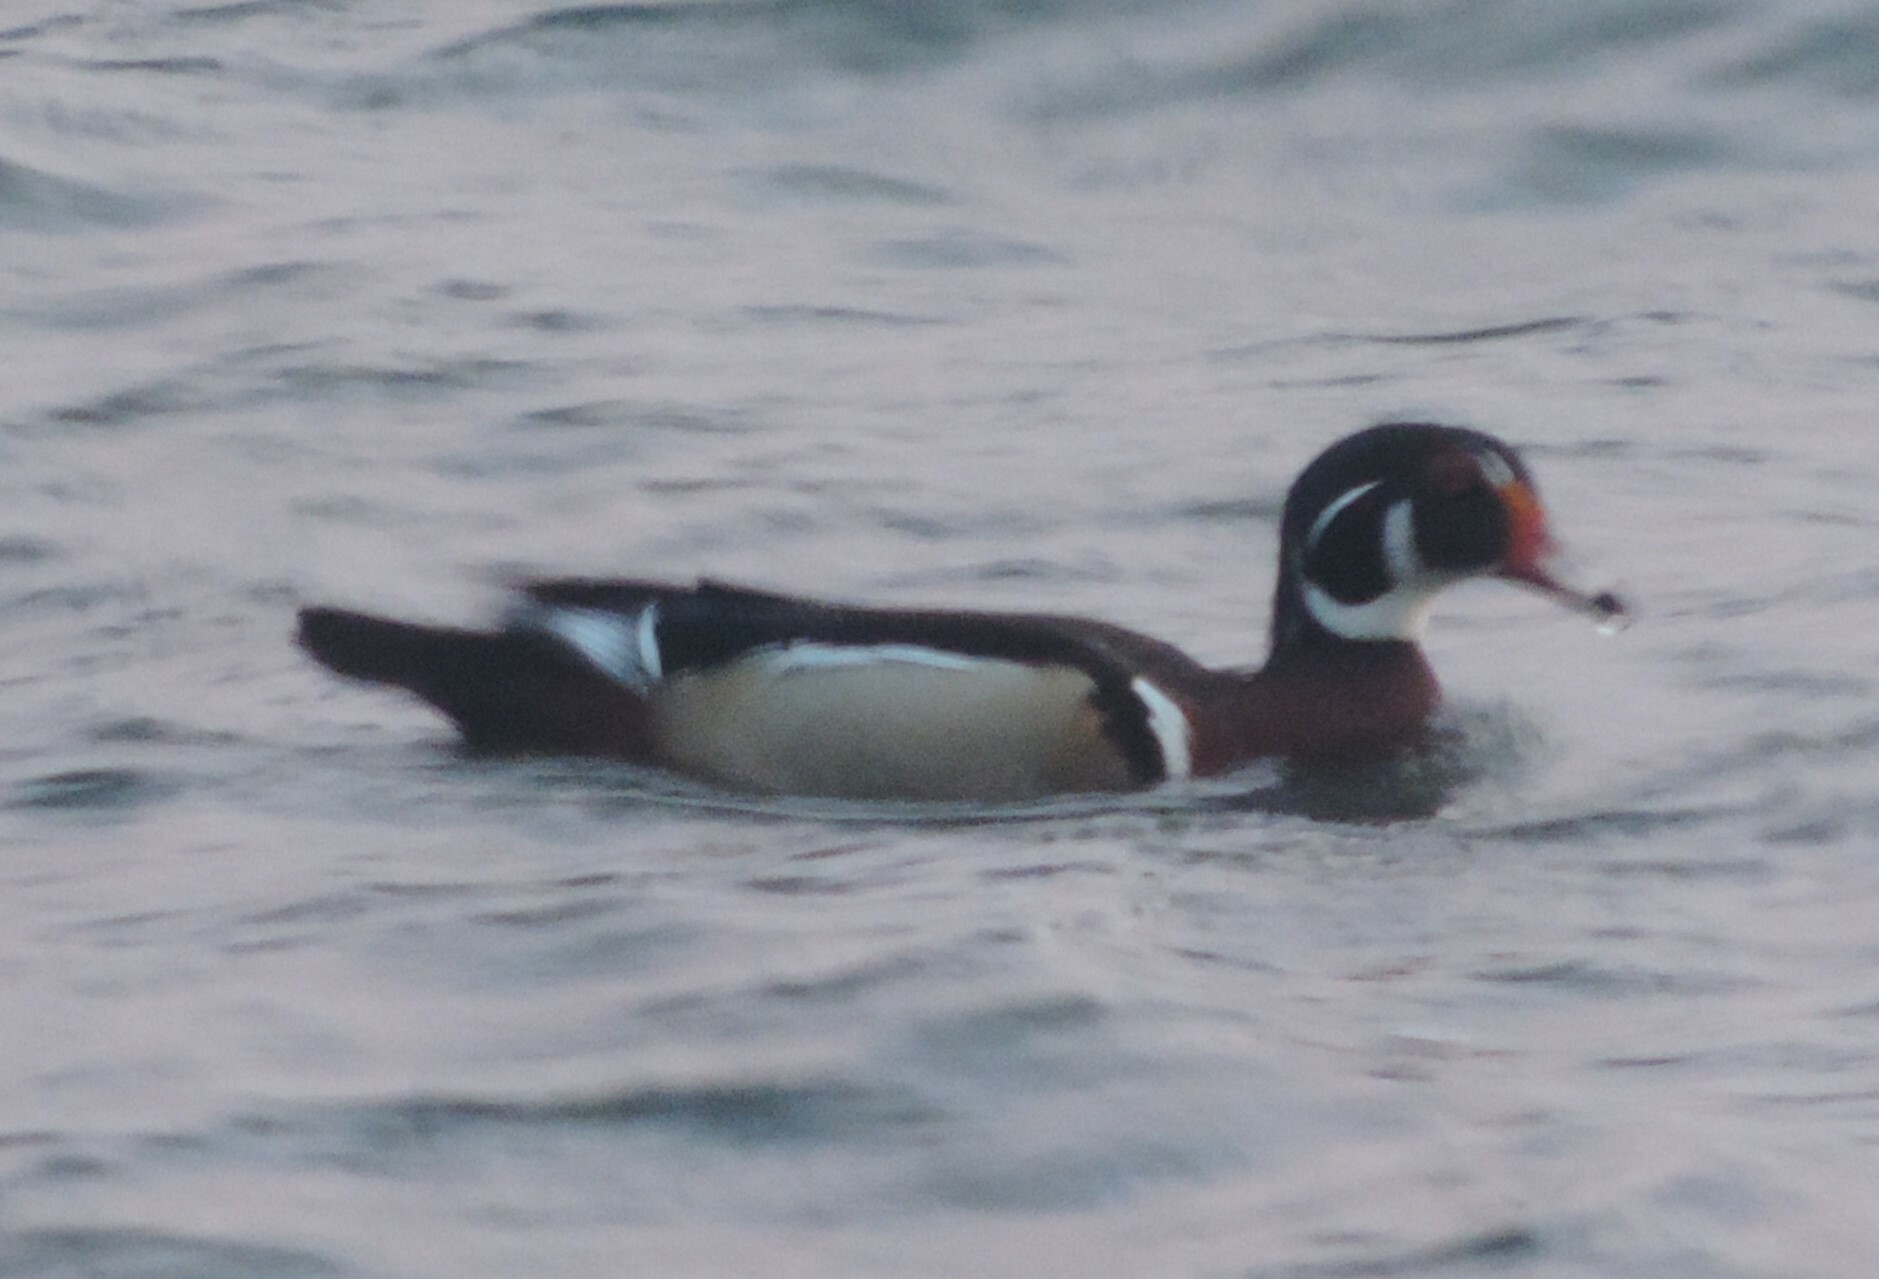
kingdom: Animalia
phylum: Chordata
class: Aves
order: Anseriformes
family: Anatidae
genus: Aix
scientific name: Aix sponsa
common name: Wood duck
